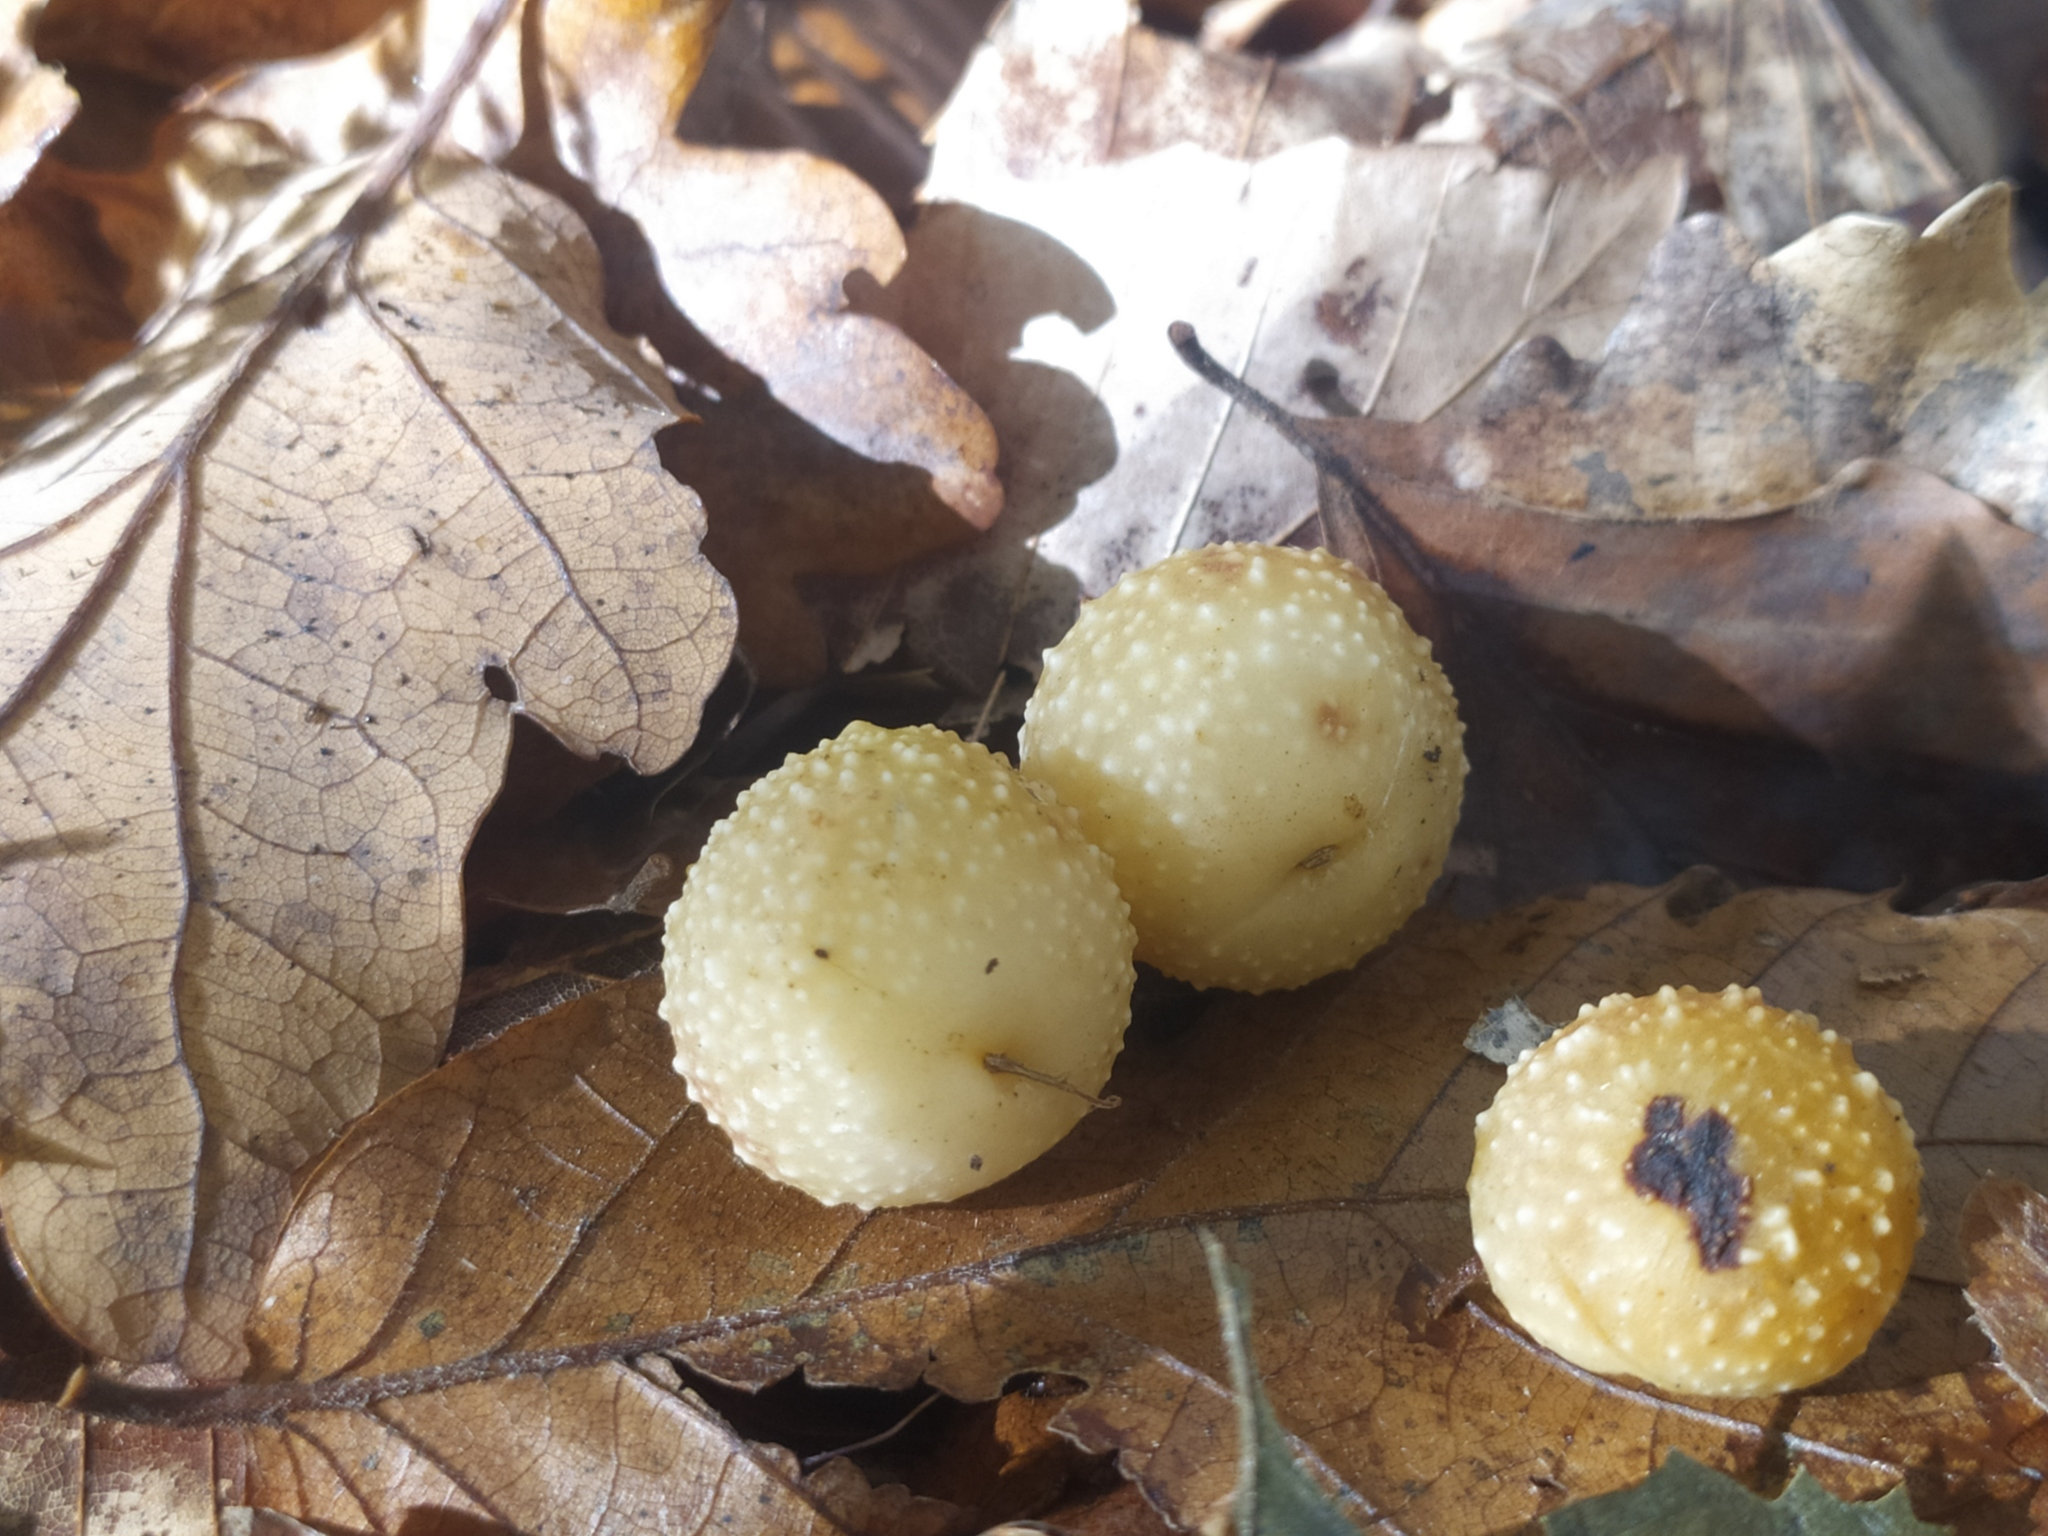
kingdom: Animalia
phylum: Arthropoda
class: Insecta
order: Hymenoptera
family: Cynipidae
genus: Cynips
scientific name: Cynips quercusfolii
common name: Cherry gall
